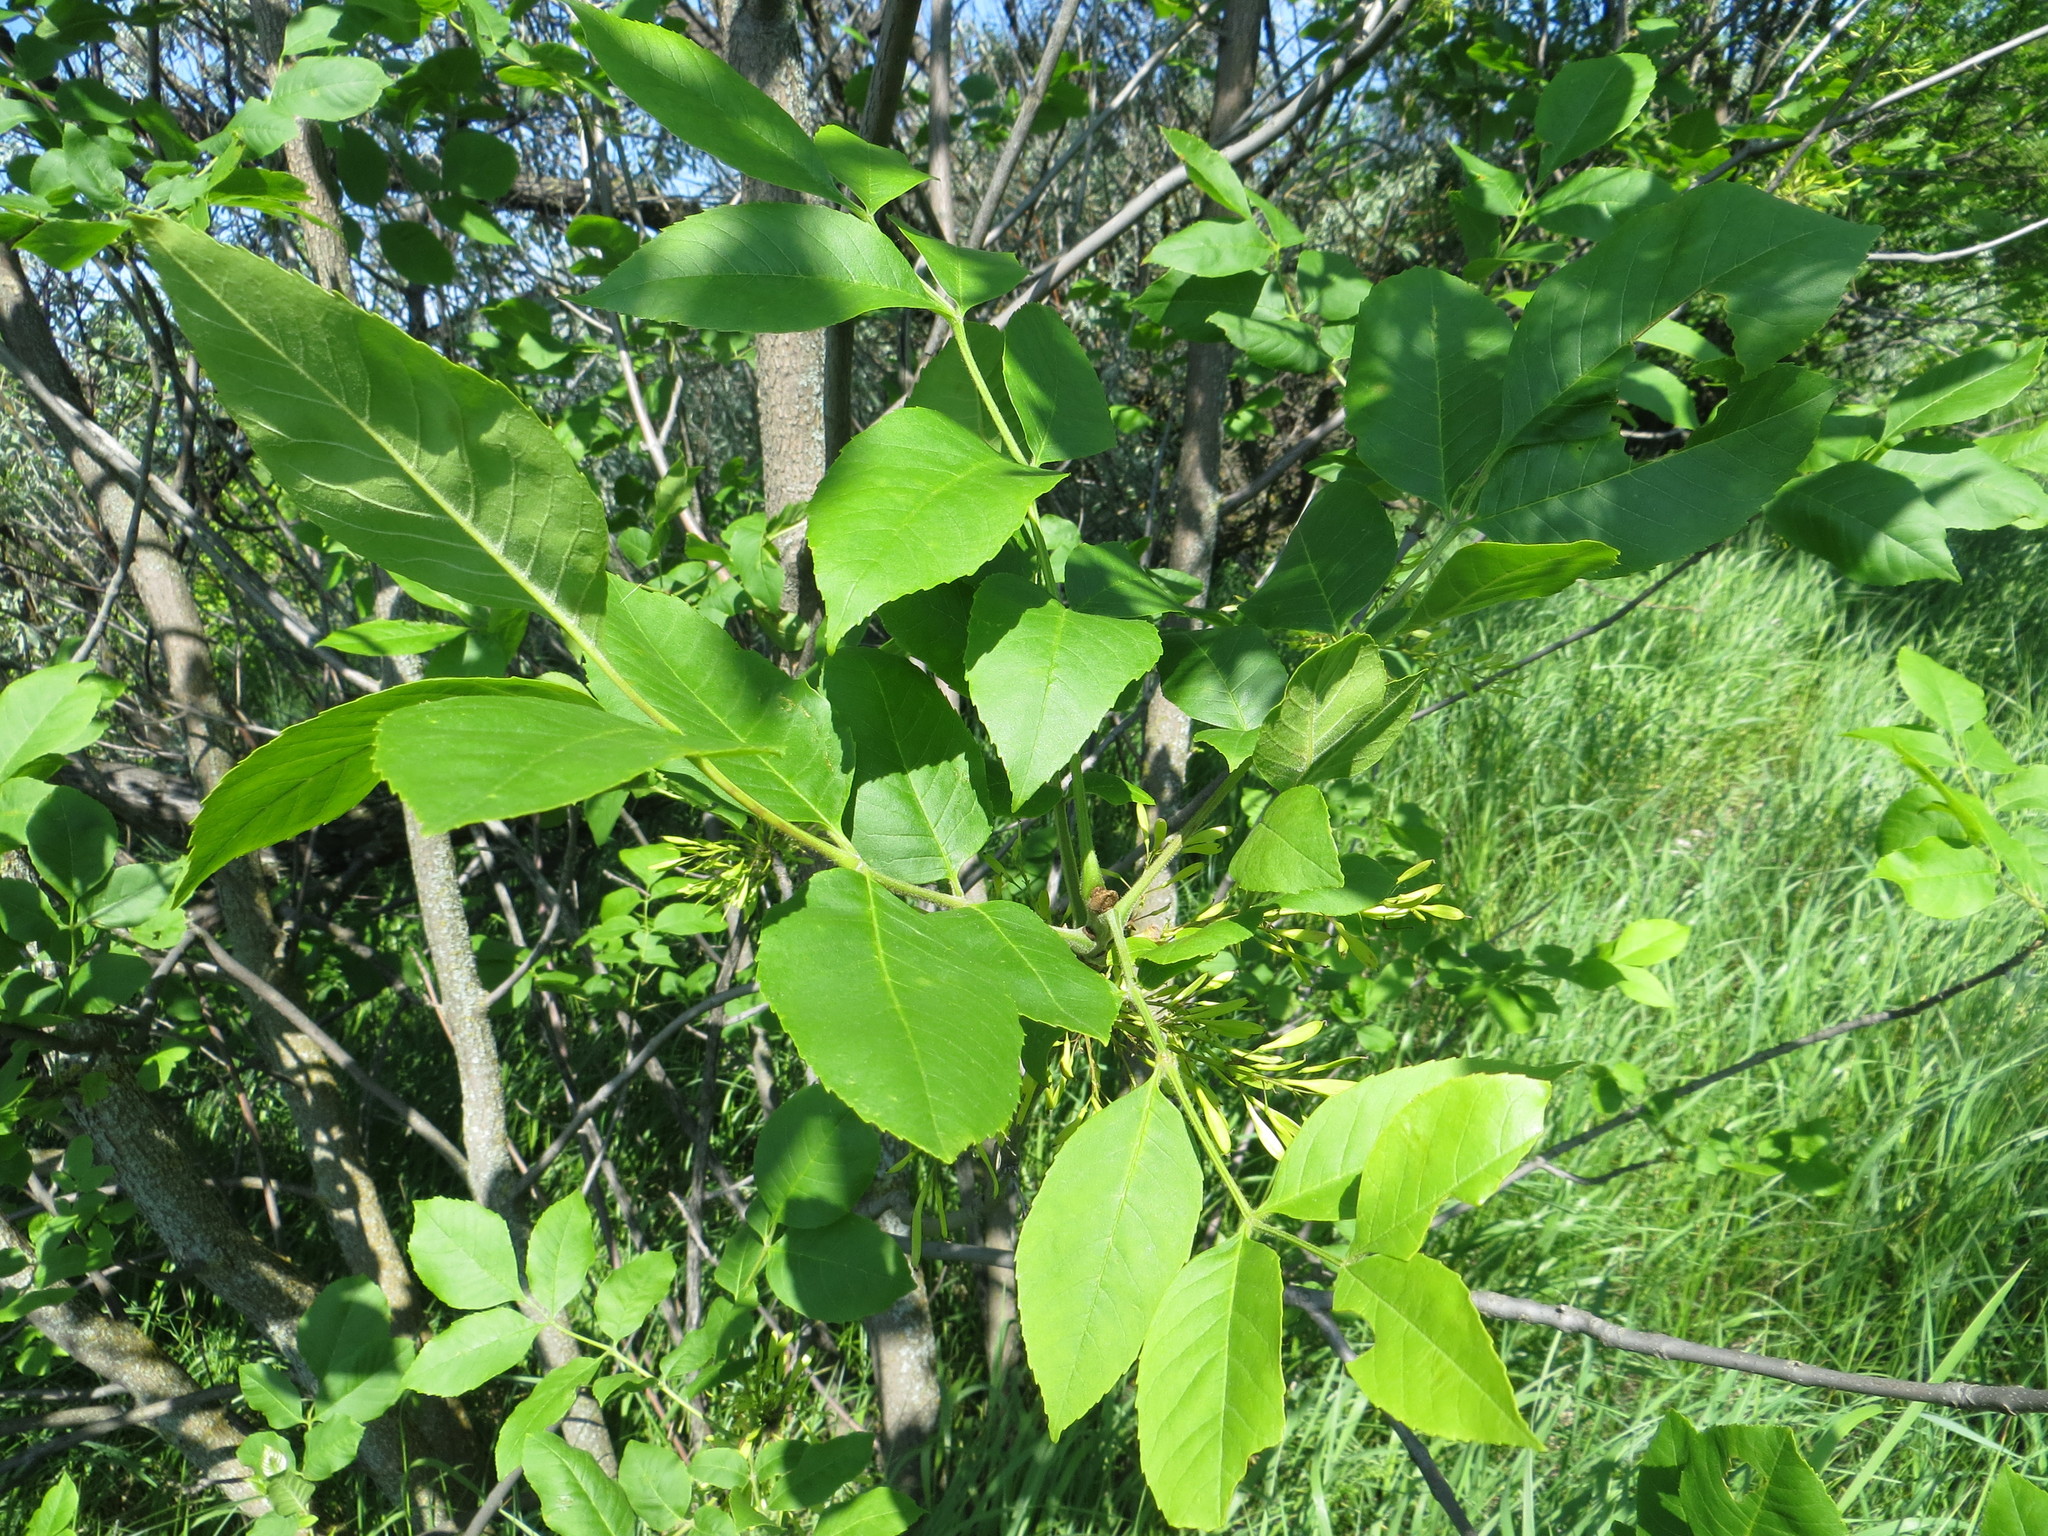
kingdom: Plantae
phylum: Tracheophyta
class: Magnoliopsida
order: Lamiales
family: Oleaceae
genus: Fraxinus
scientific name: Fraxinus pennsylvanica
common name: Green ash
